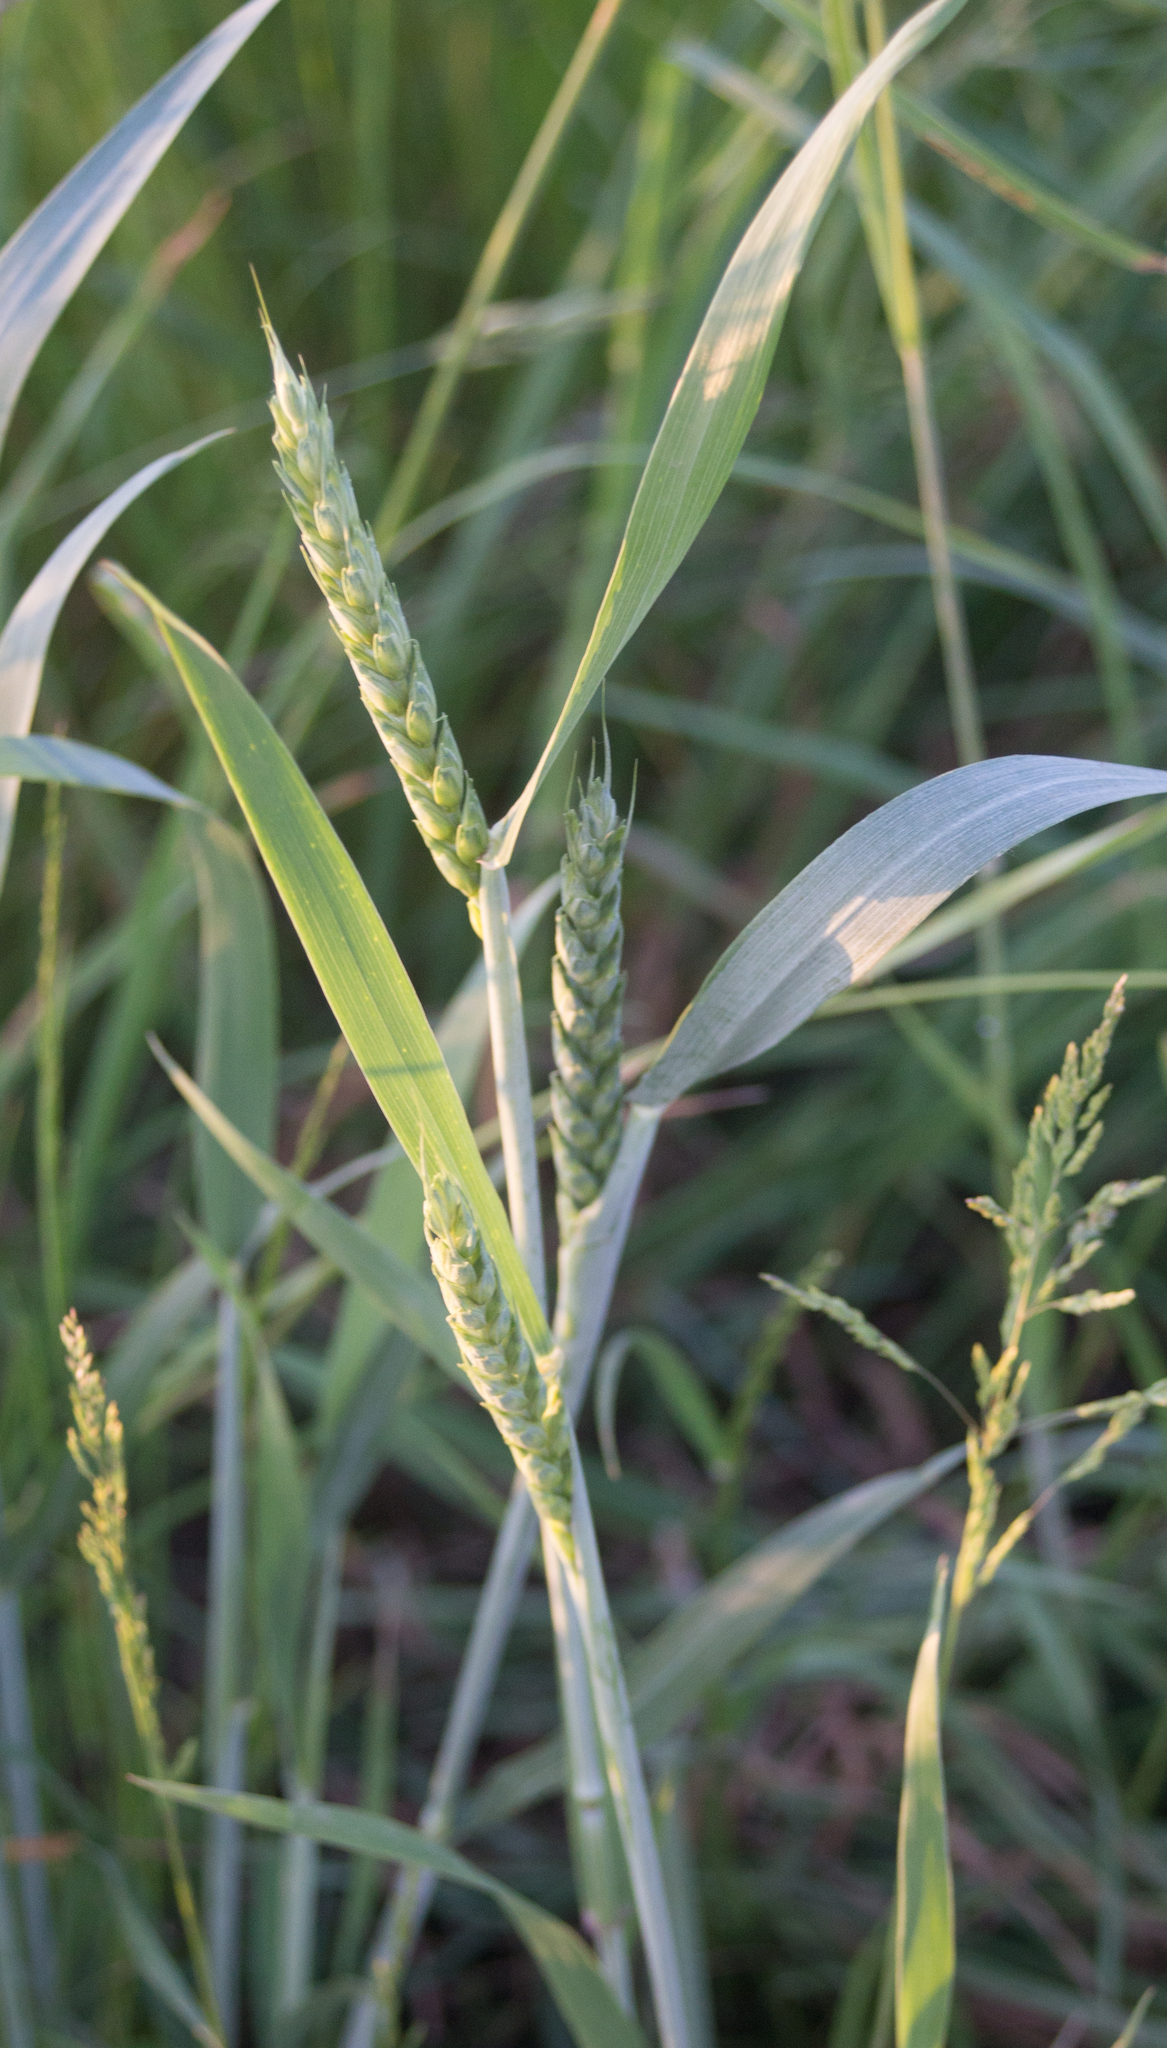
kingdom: Plantae
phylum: Tracheophyta
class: Liliopsida
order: Poales
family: Poaceae
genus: Triticum
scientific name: Triticum aestivum
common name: Common wheat
